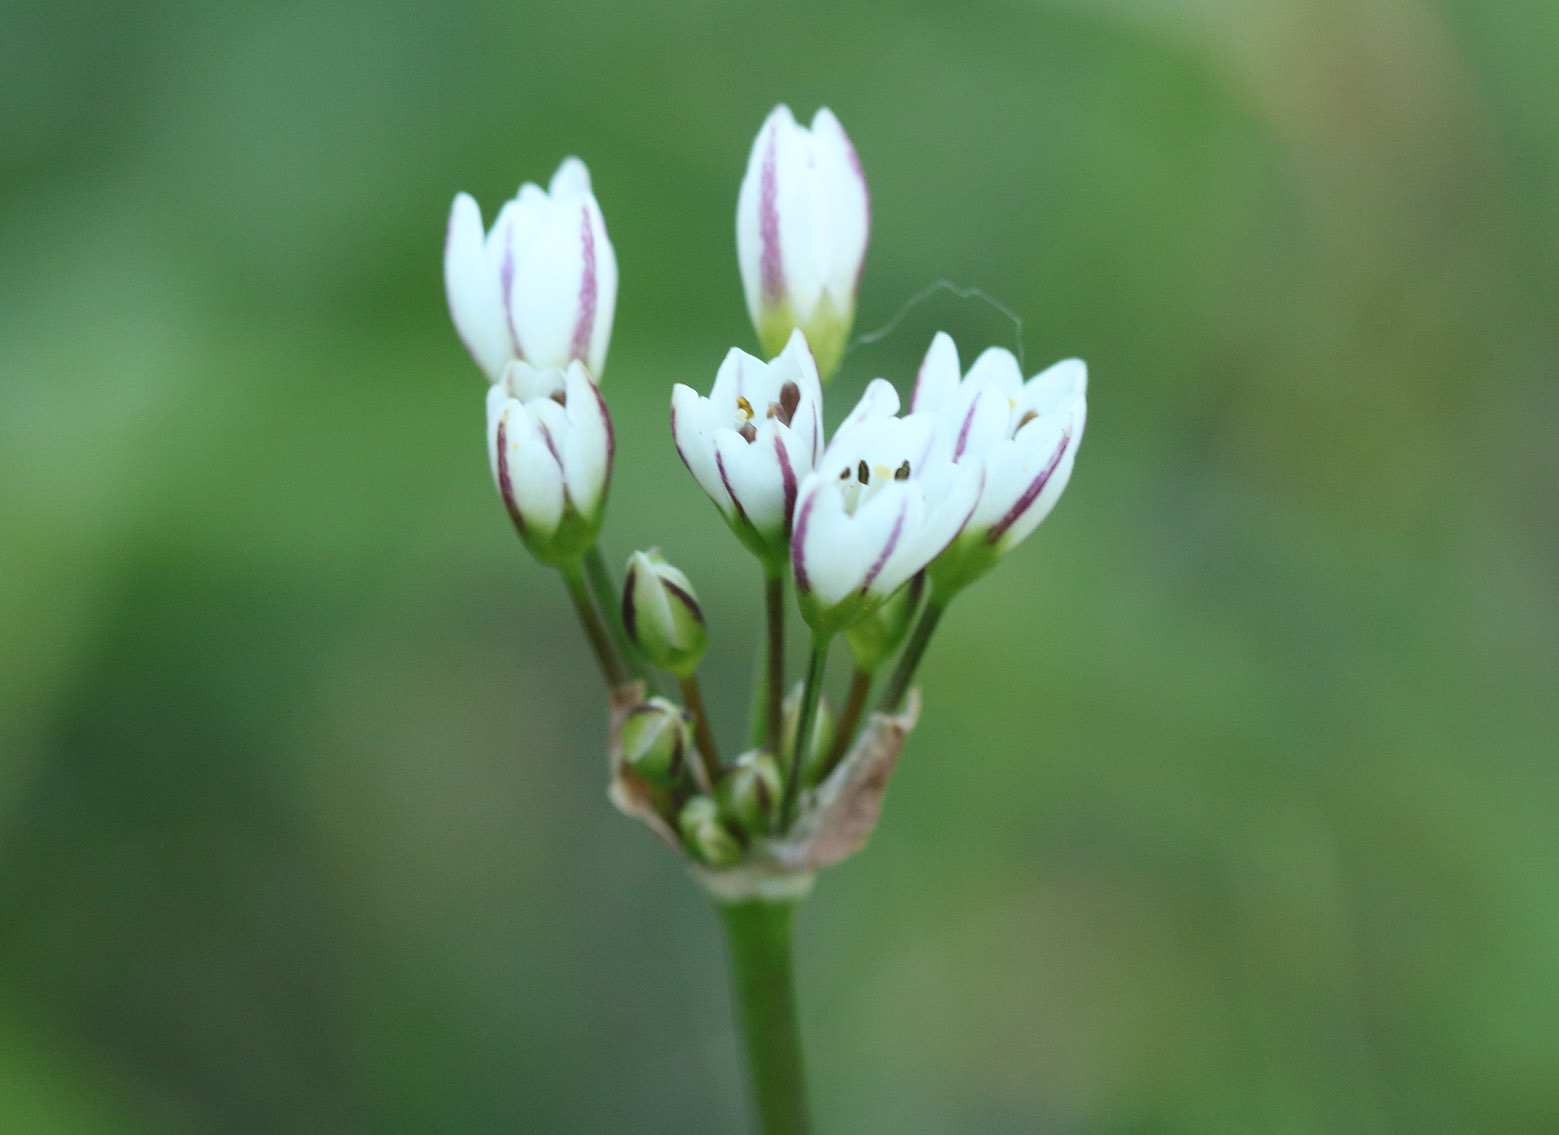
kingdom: Plantae
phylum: Tracheophyta
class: Liliopsida
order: Asparagales
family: Amaryllidaceae
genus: Nothoscordum
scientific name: Nothoscordum gracile
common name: Slender false garlic
